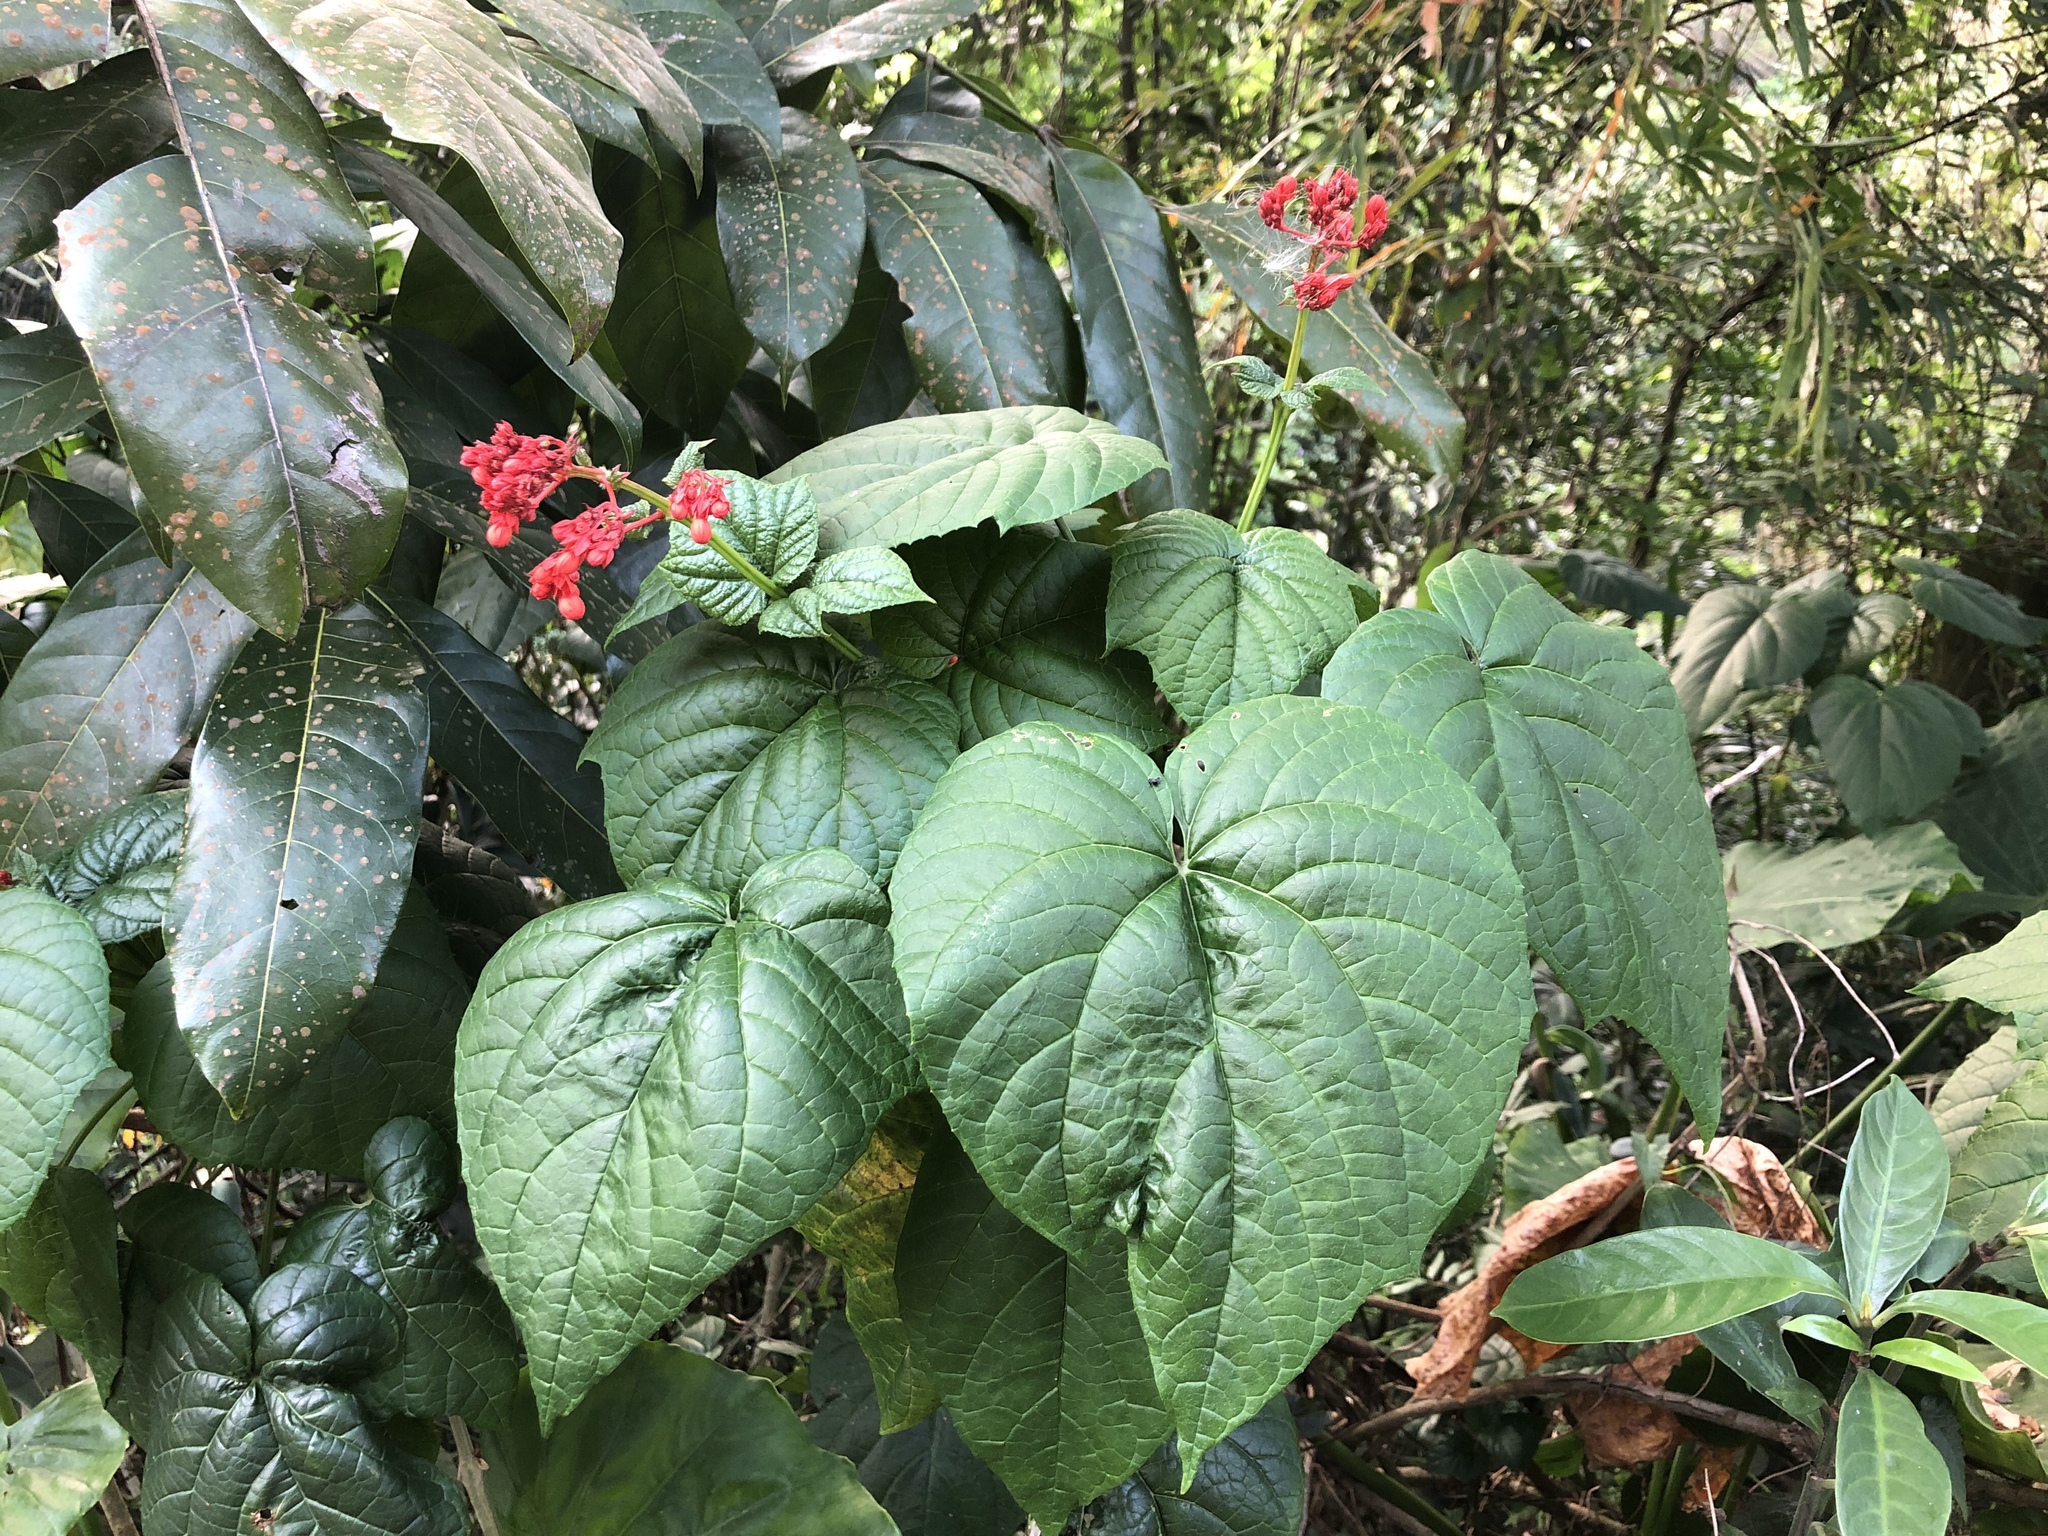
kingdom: Plantae
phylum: Tracheophyta
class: Magnoliopsida
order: Lamiales
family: Lamiaceae
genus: Clerodendrum
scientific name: Clerodendrum japonicum
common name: Japanese glorybower
